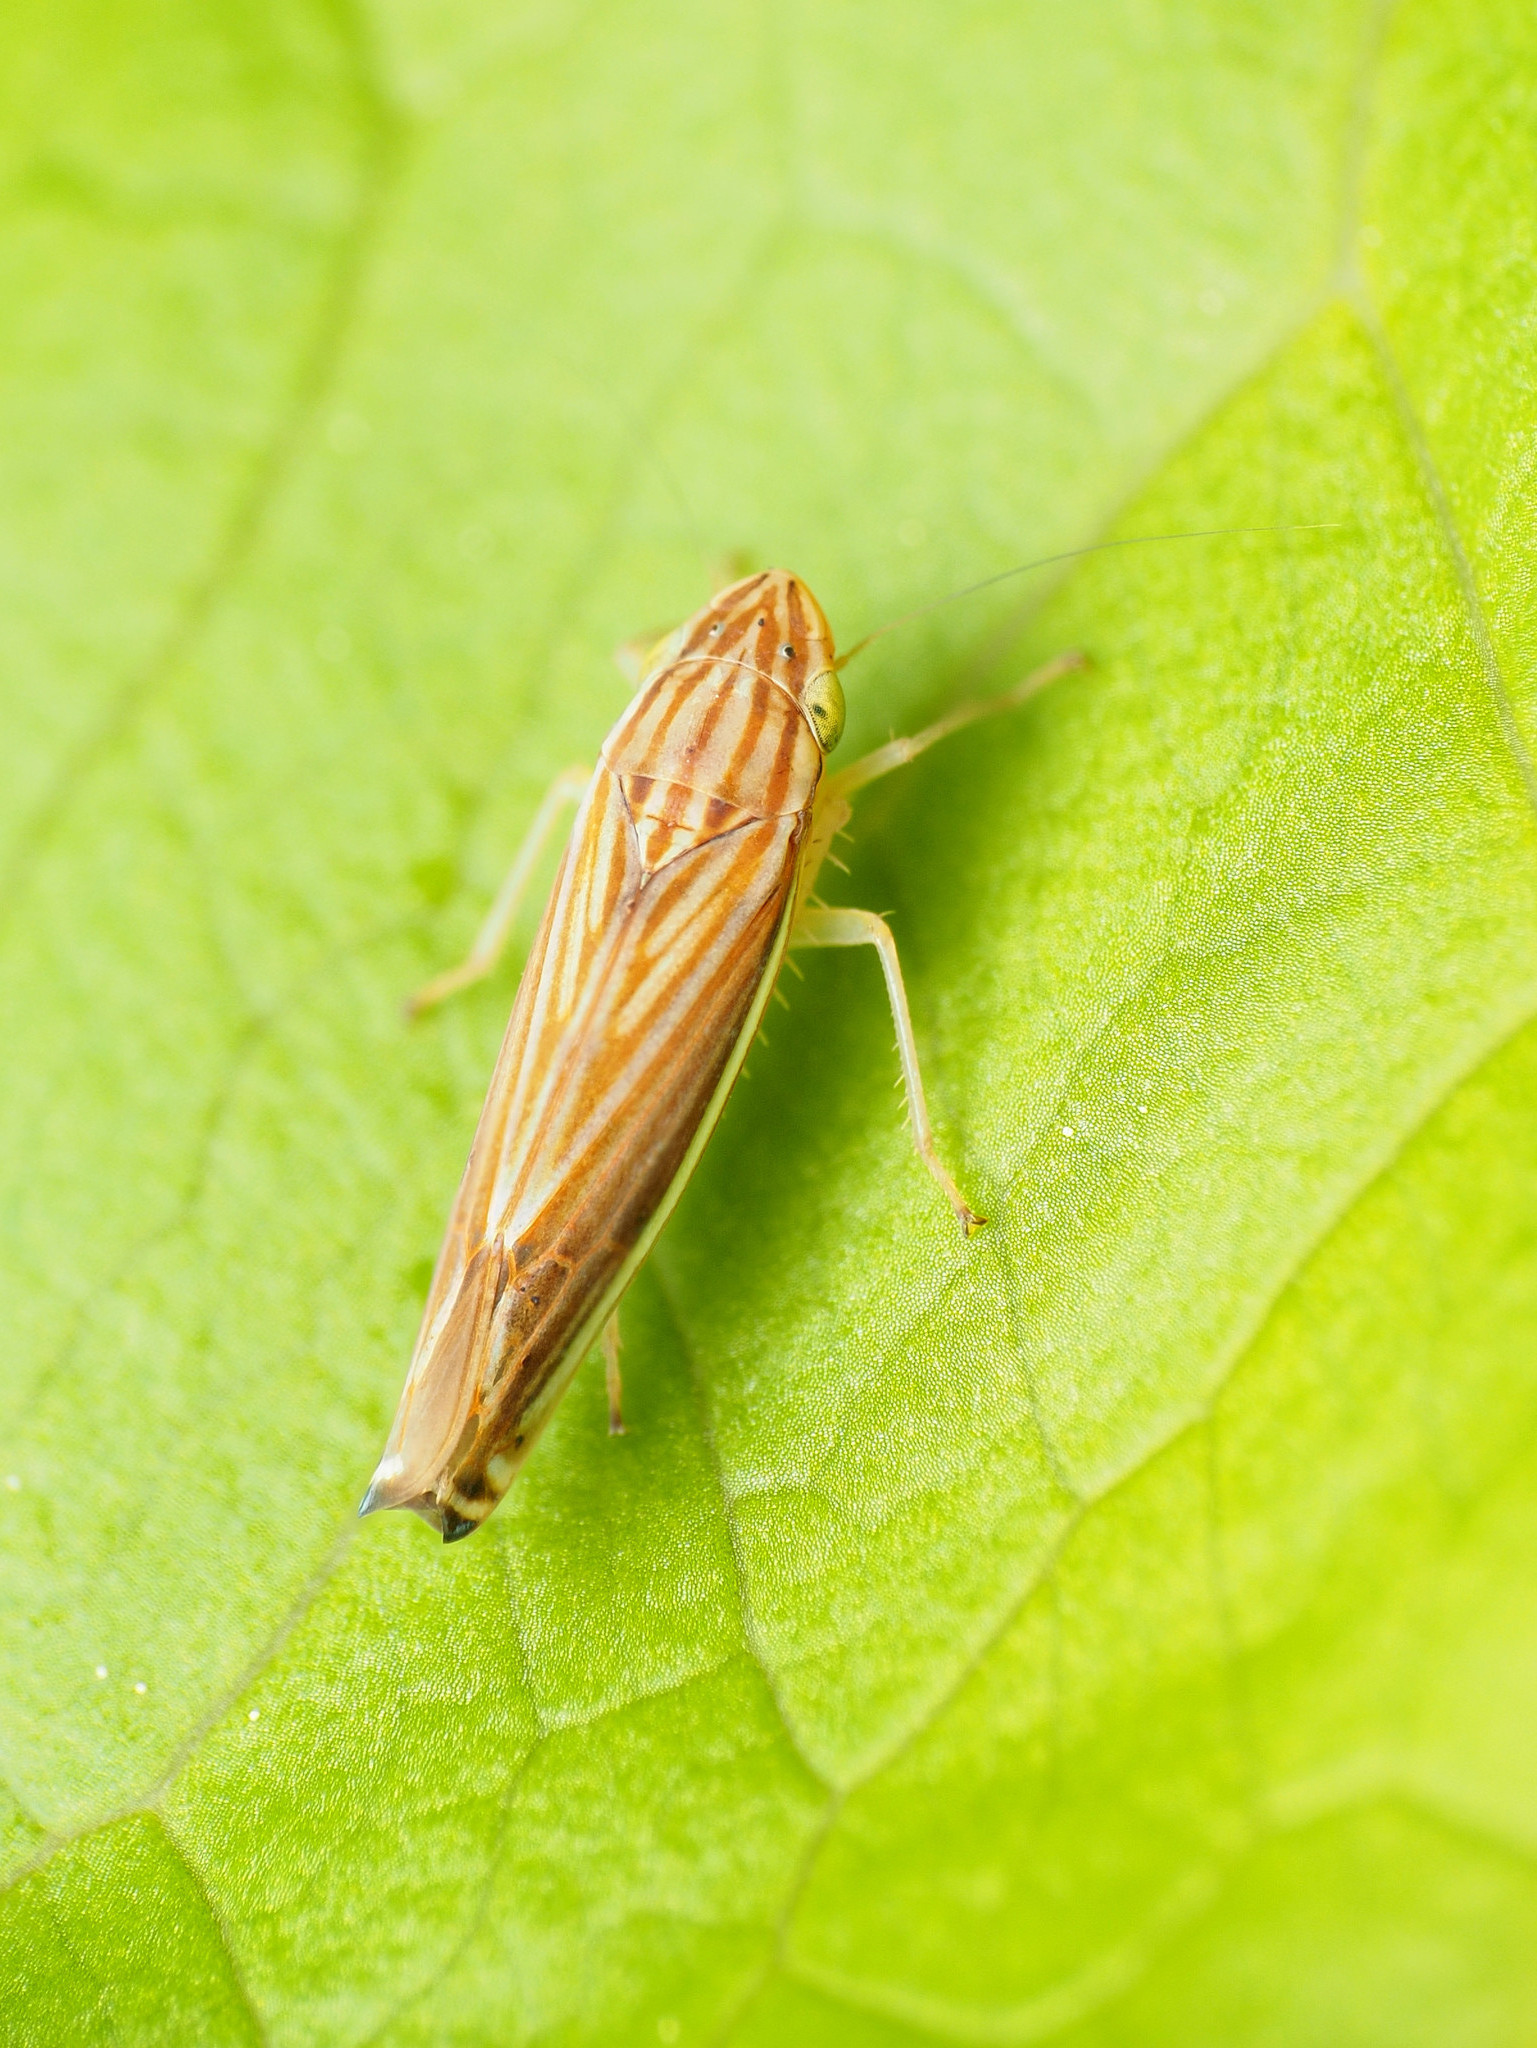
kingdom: Animalia
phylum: Arthropoda
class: Insecta
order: Hemiptera
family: Cicadellidae
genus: Sibovia
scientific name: Sibovia occatoria
